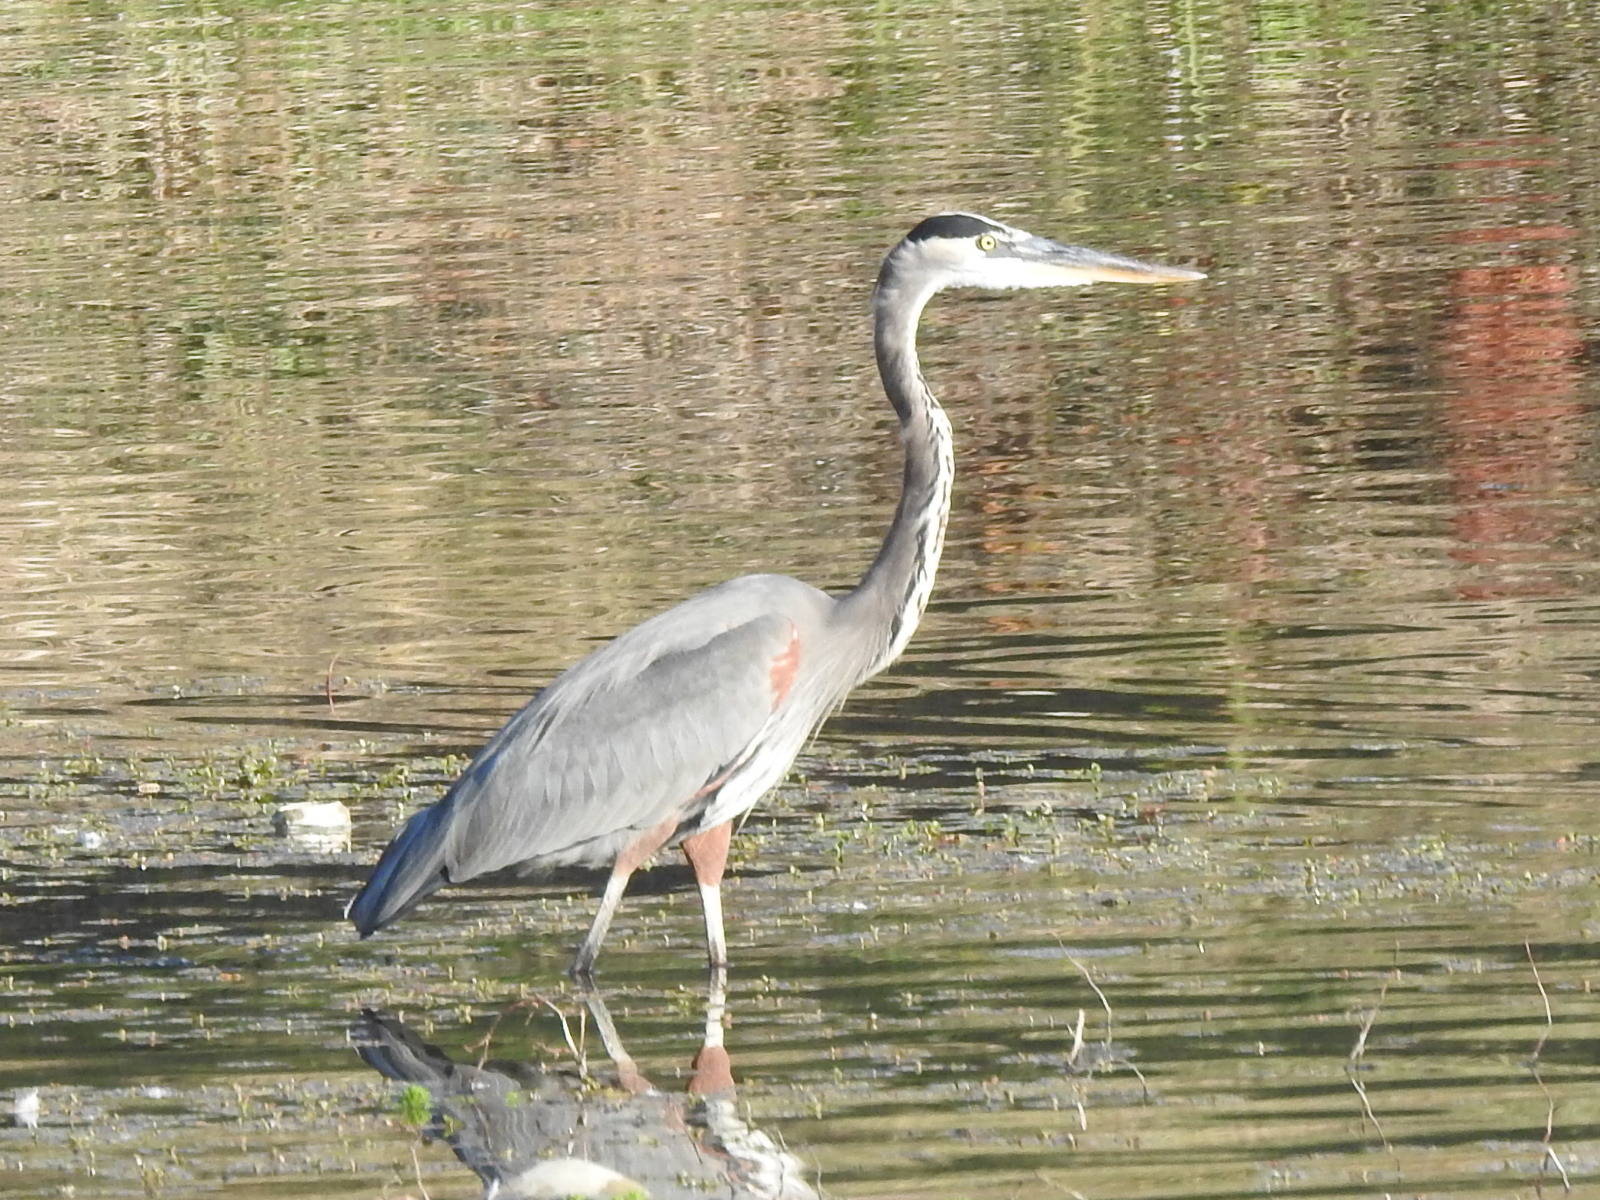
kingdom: Animalia
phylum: Chordata
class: Aves
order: Pelecaniformes
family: Ardeidae
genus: Ardea
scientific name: Ardea herodias
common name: Great blue heron
